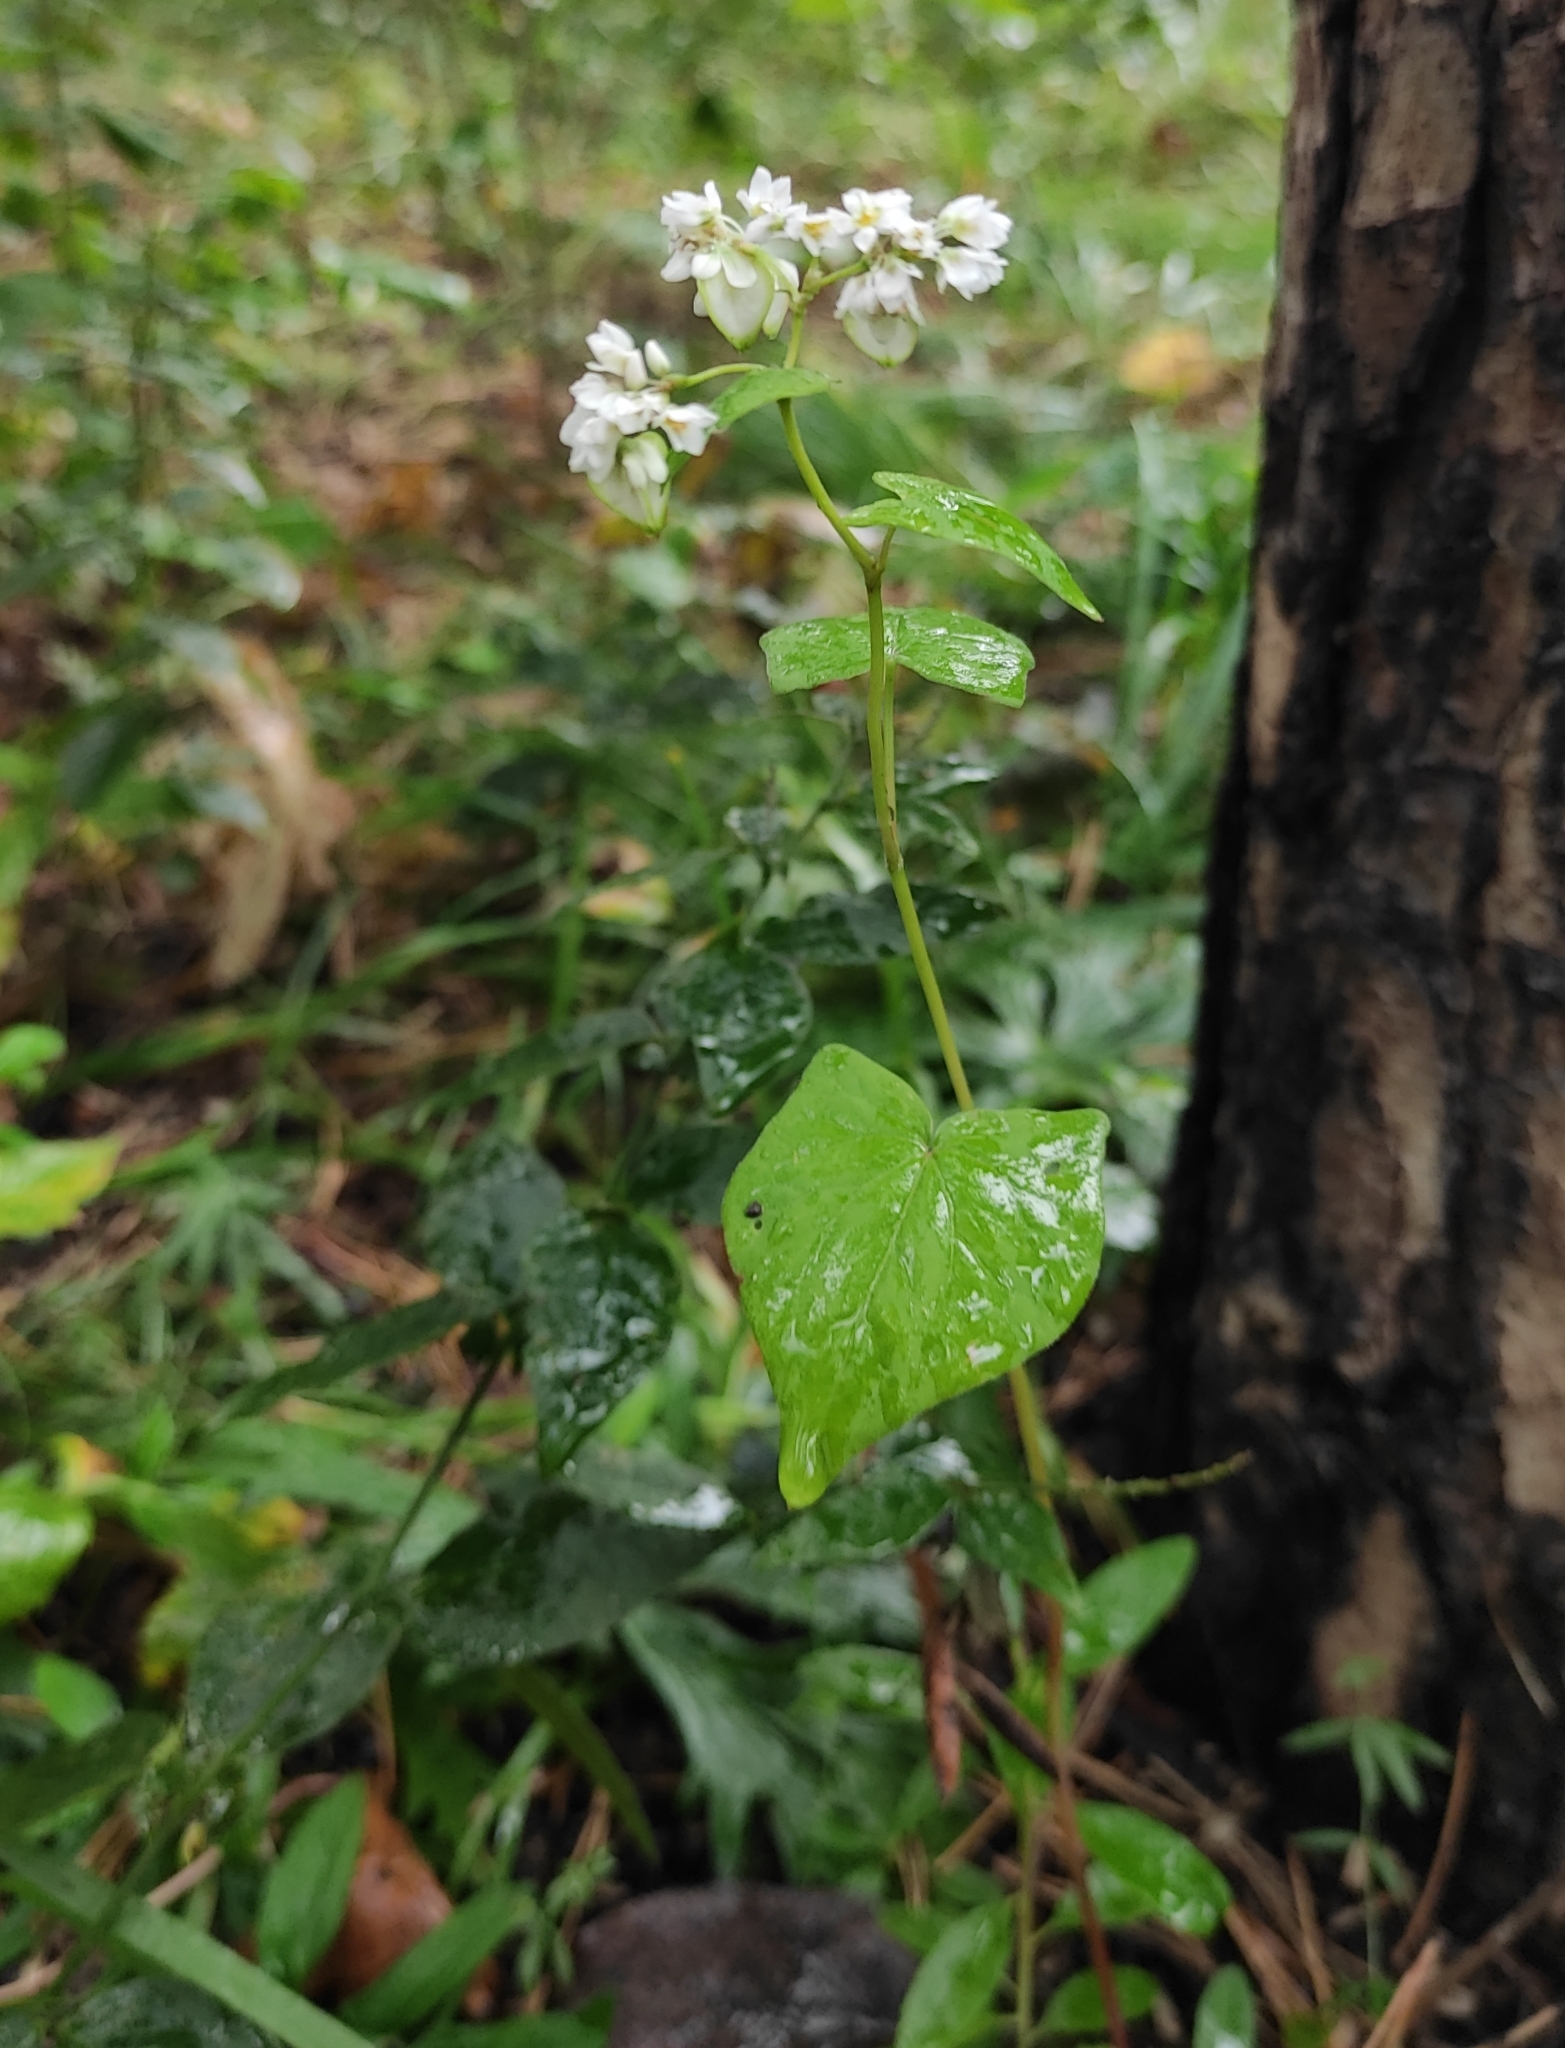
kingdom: Plantae
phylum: Tracheophyta
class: Magnoliopsida
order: Caryophyllales
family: Polygonaceae
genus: Fagopyrum
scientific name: Fagopyrum esculentum
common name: Buckwheat
